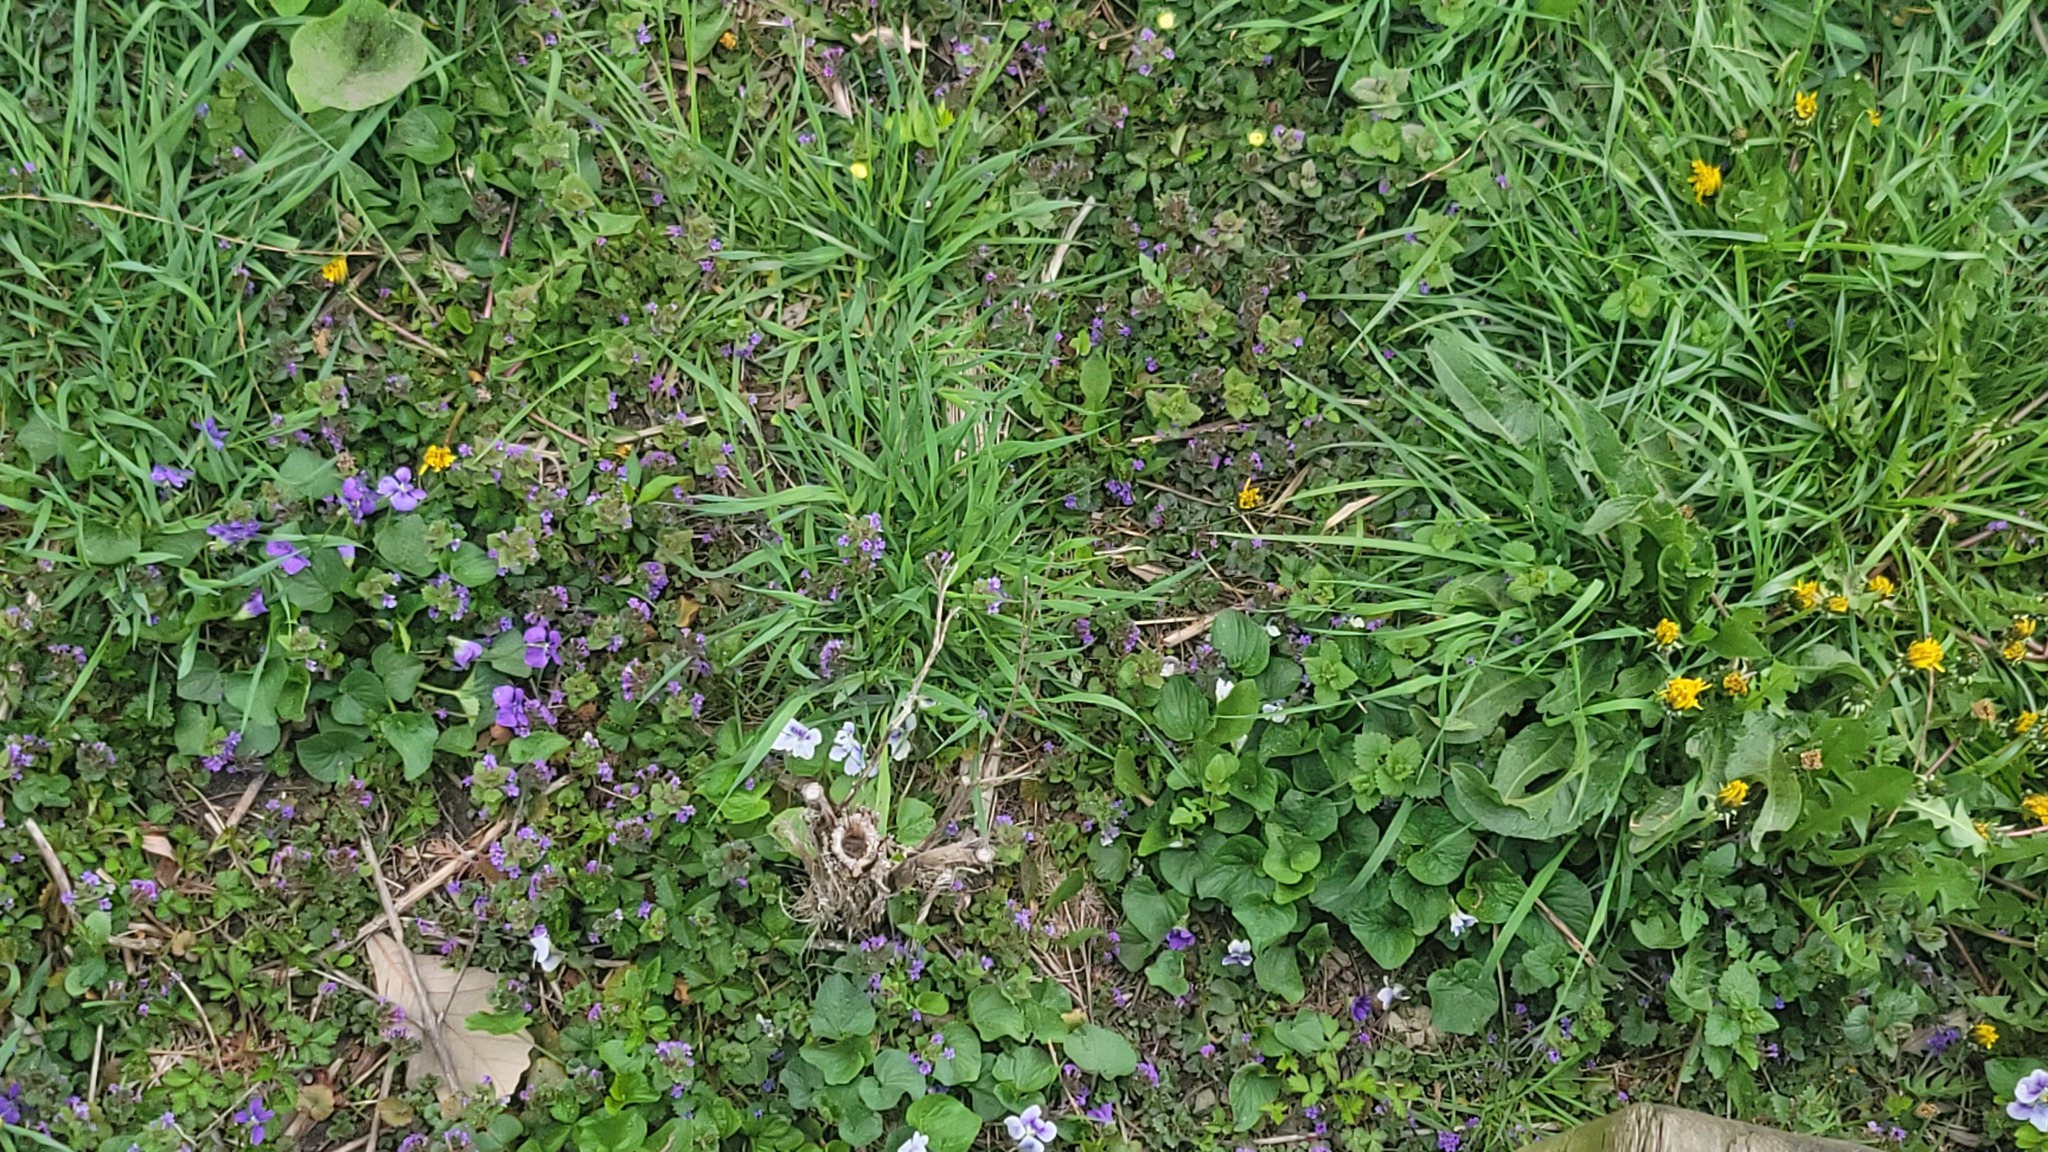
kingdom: Plantae
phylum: Tracheophyta
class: Magnoliopsida
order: Malpighiales
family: Violaceae
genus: Viola
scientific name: Viola sororia
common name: Dooryard violet
